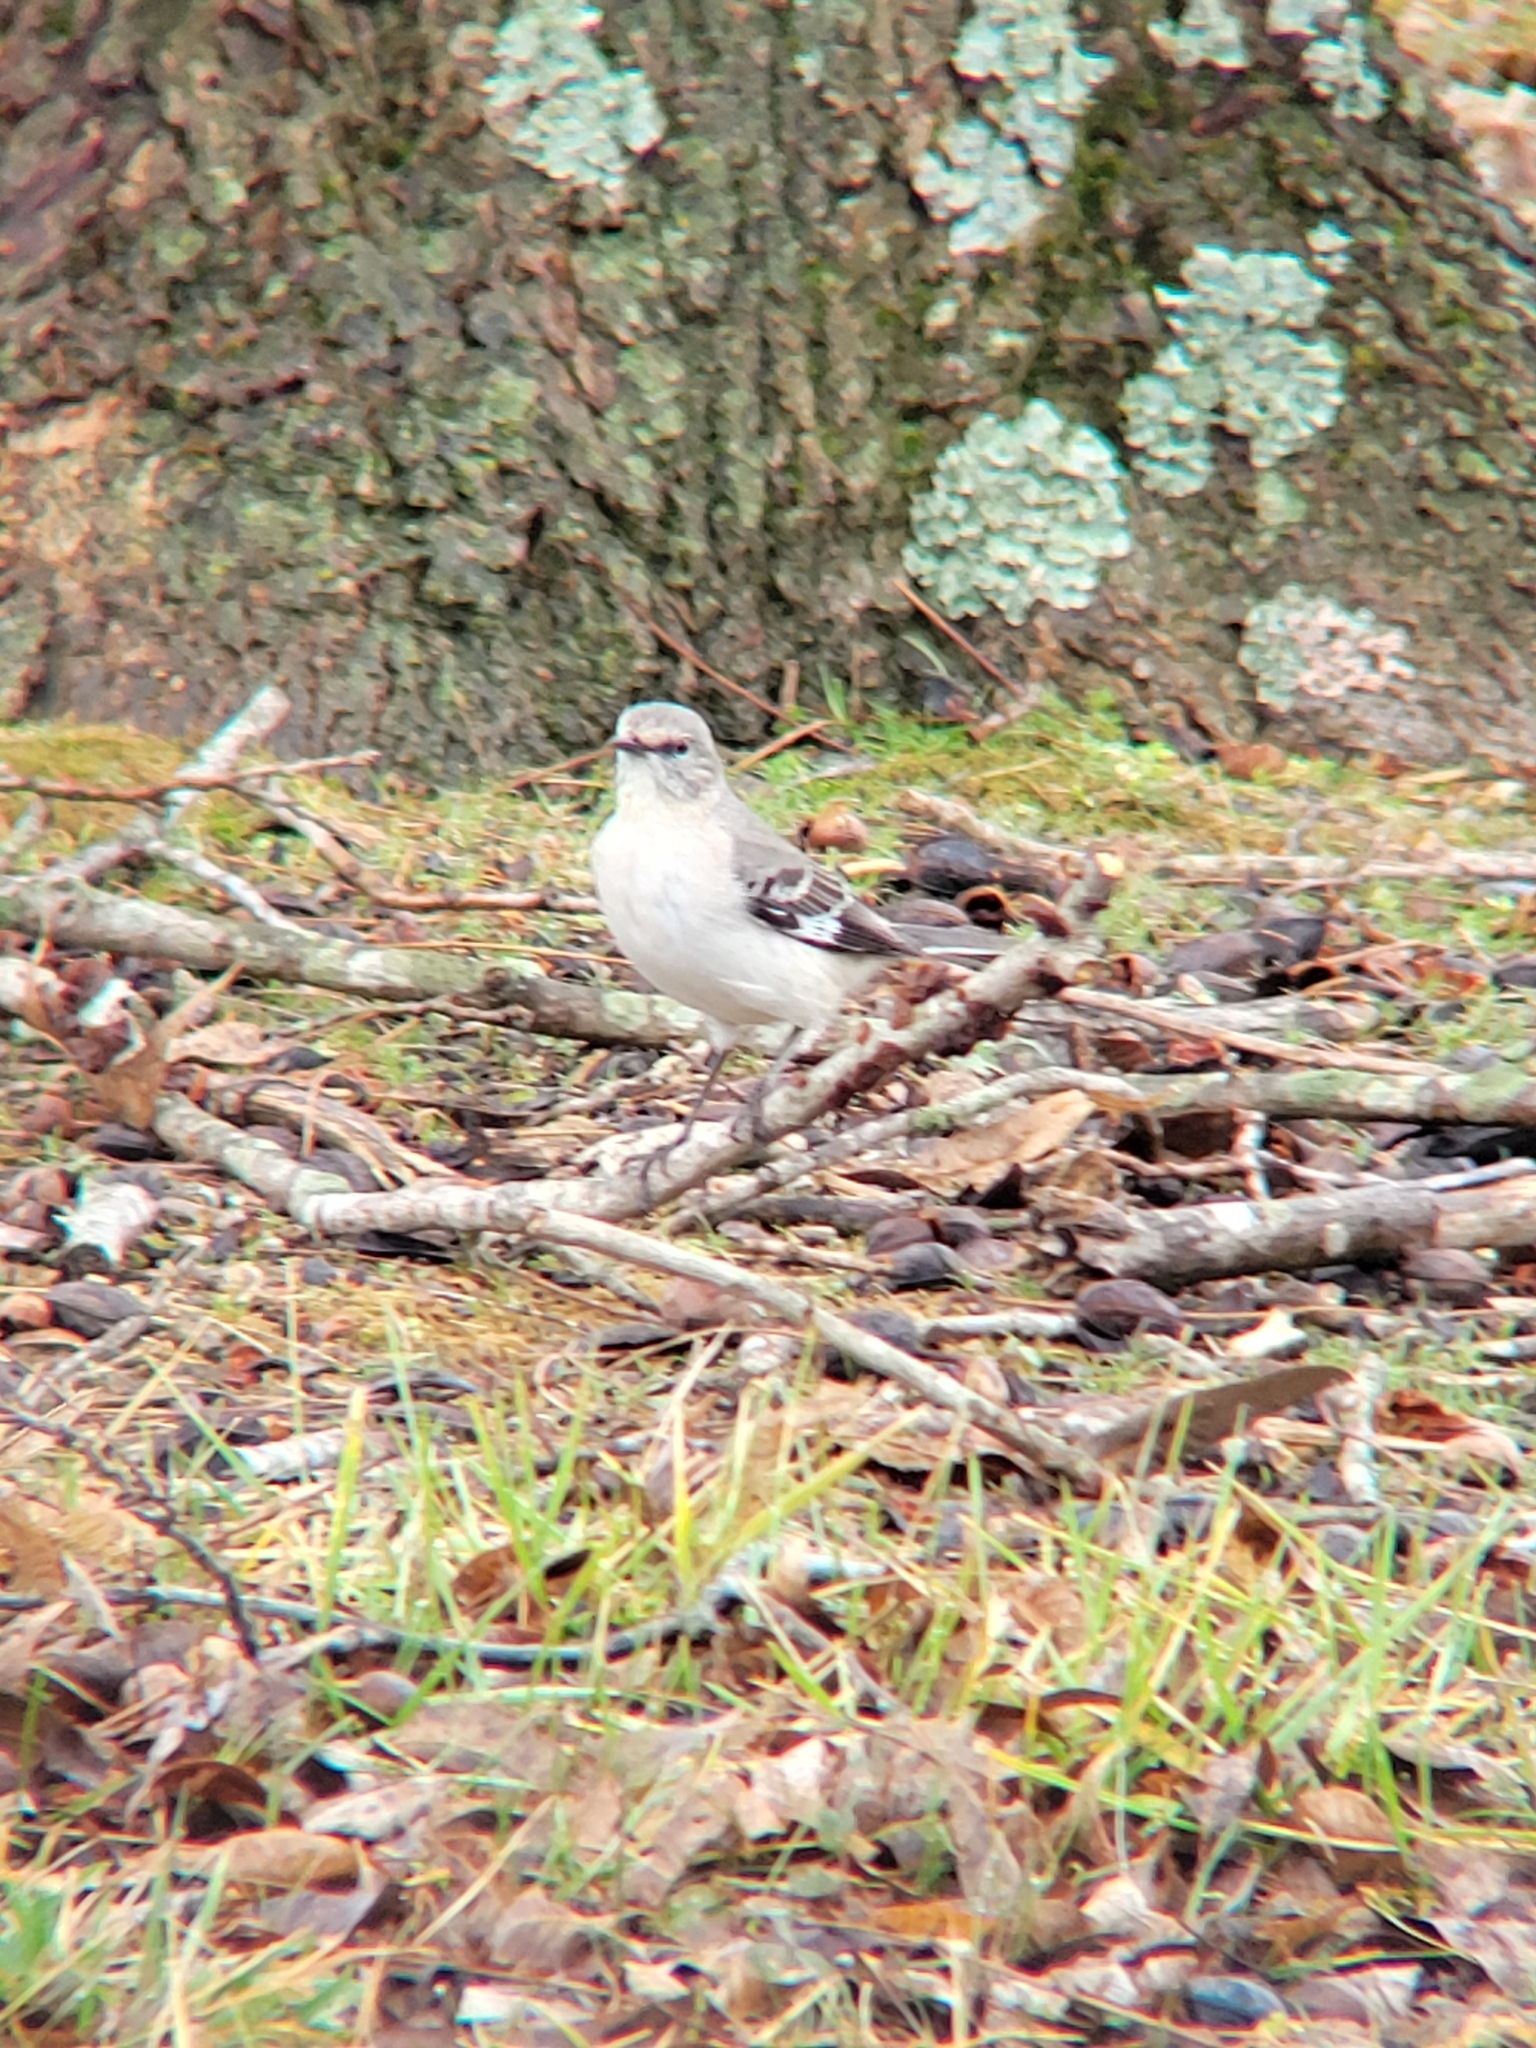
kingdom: Animalia
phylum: Chordata
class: Aves
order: Passeriformes
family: Mimidae
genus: Mimus
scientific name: Mimus polyglottos
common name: Northern mockingbird
